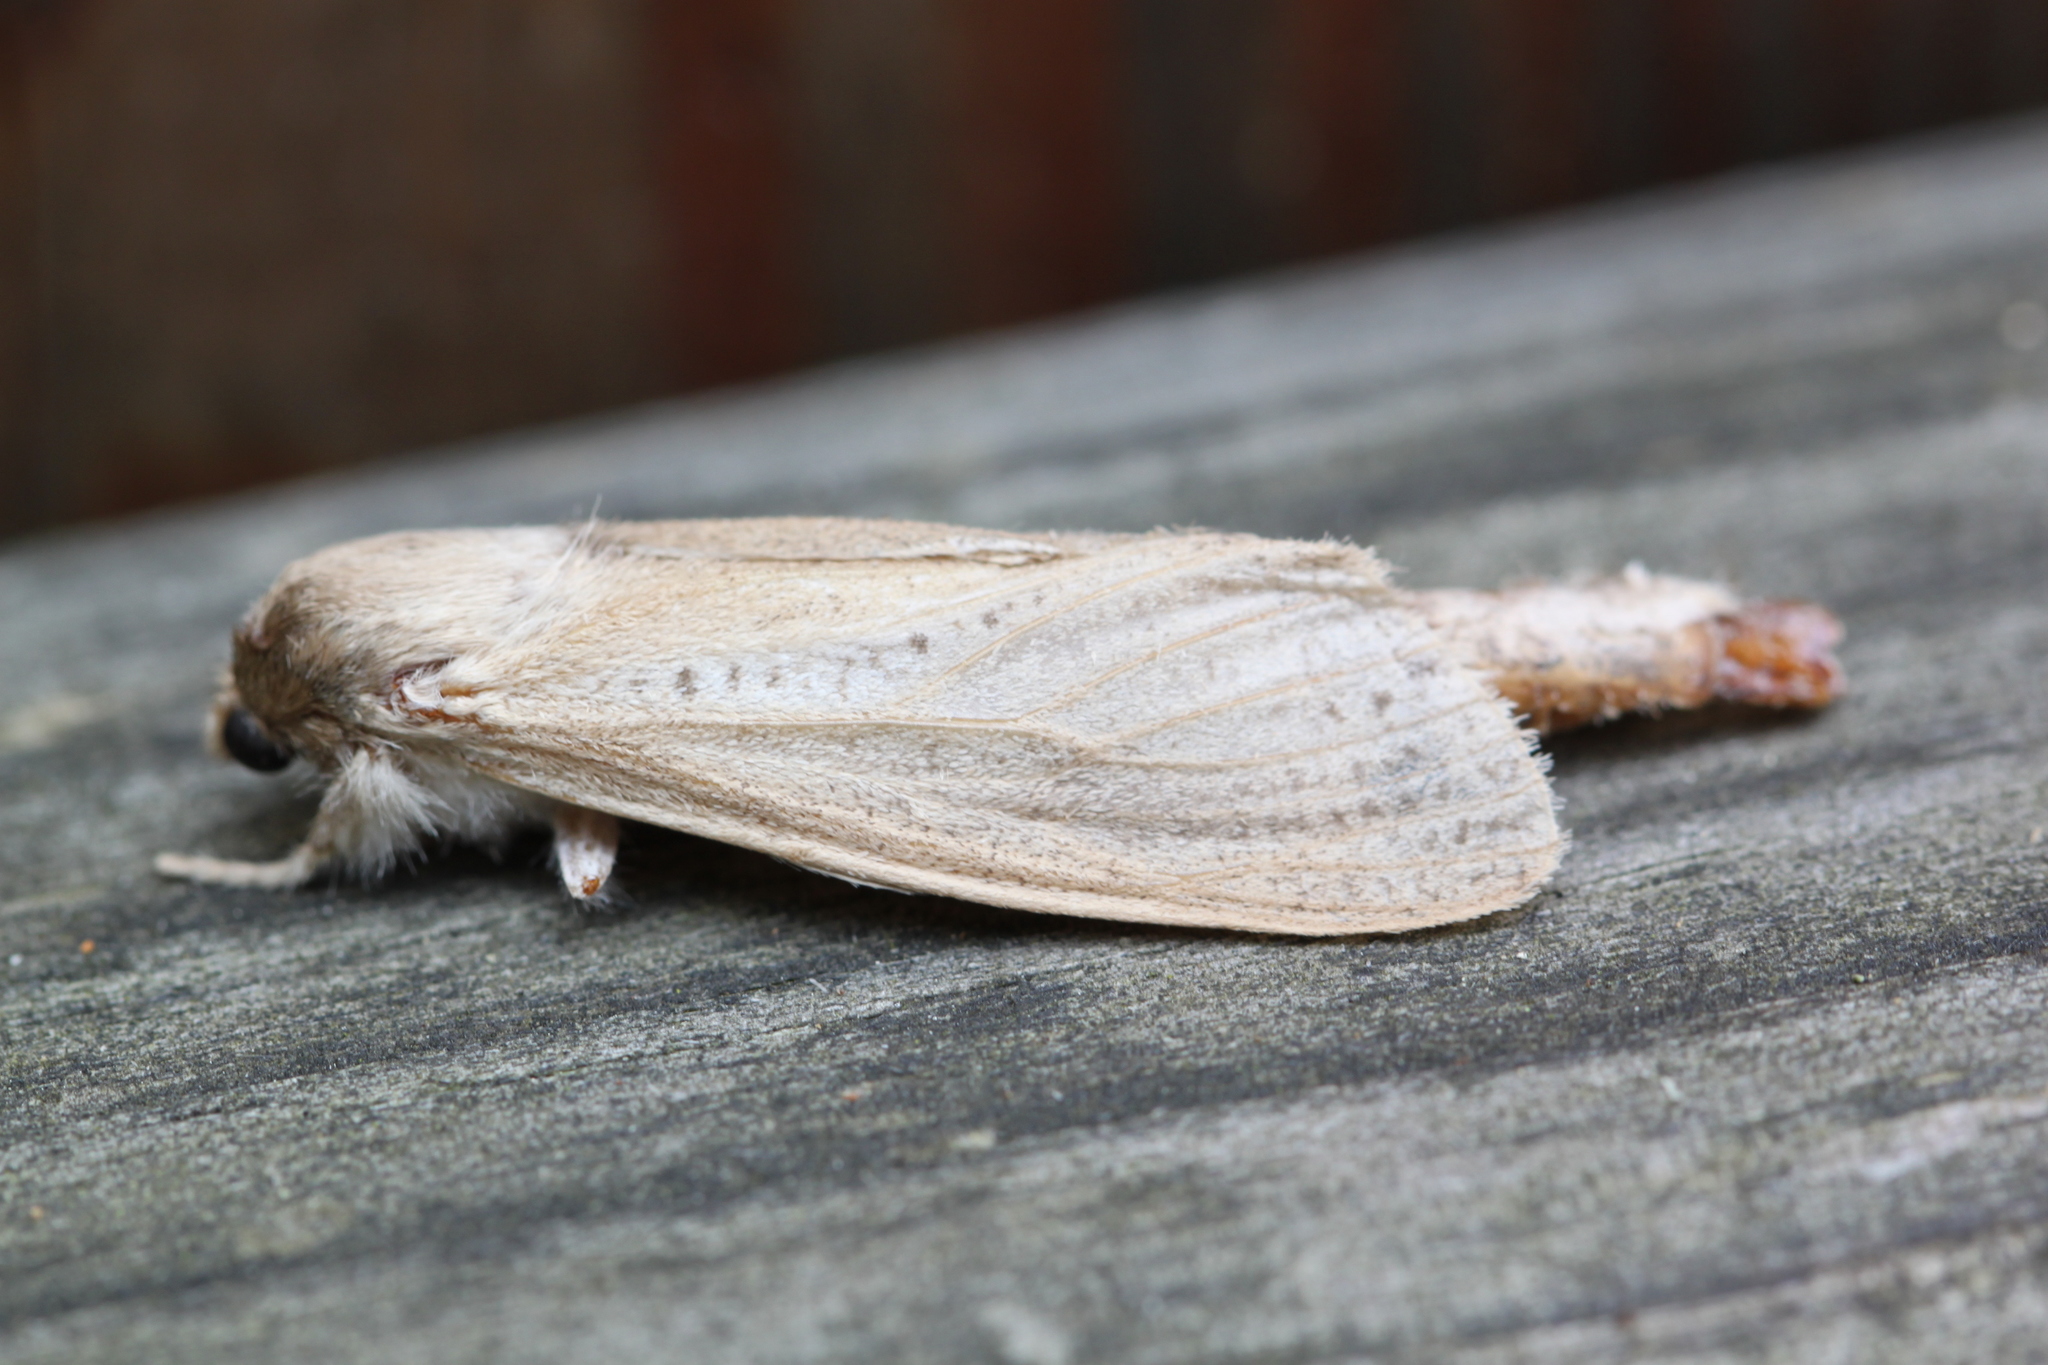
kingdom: Animalia
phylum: Arthropoda
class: Insecta
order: Lepidoptera
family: Cossidae
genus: Phragmataecia
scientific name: Phragmataecia castaneae
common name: Reed leopard
